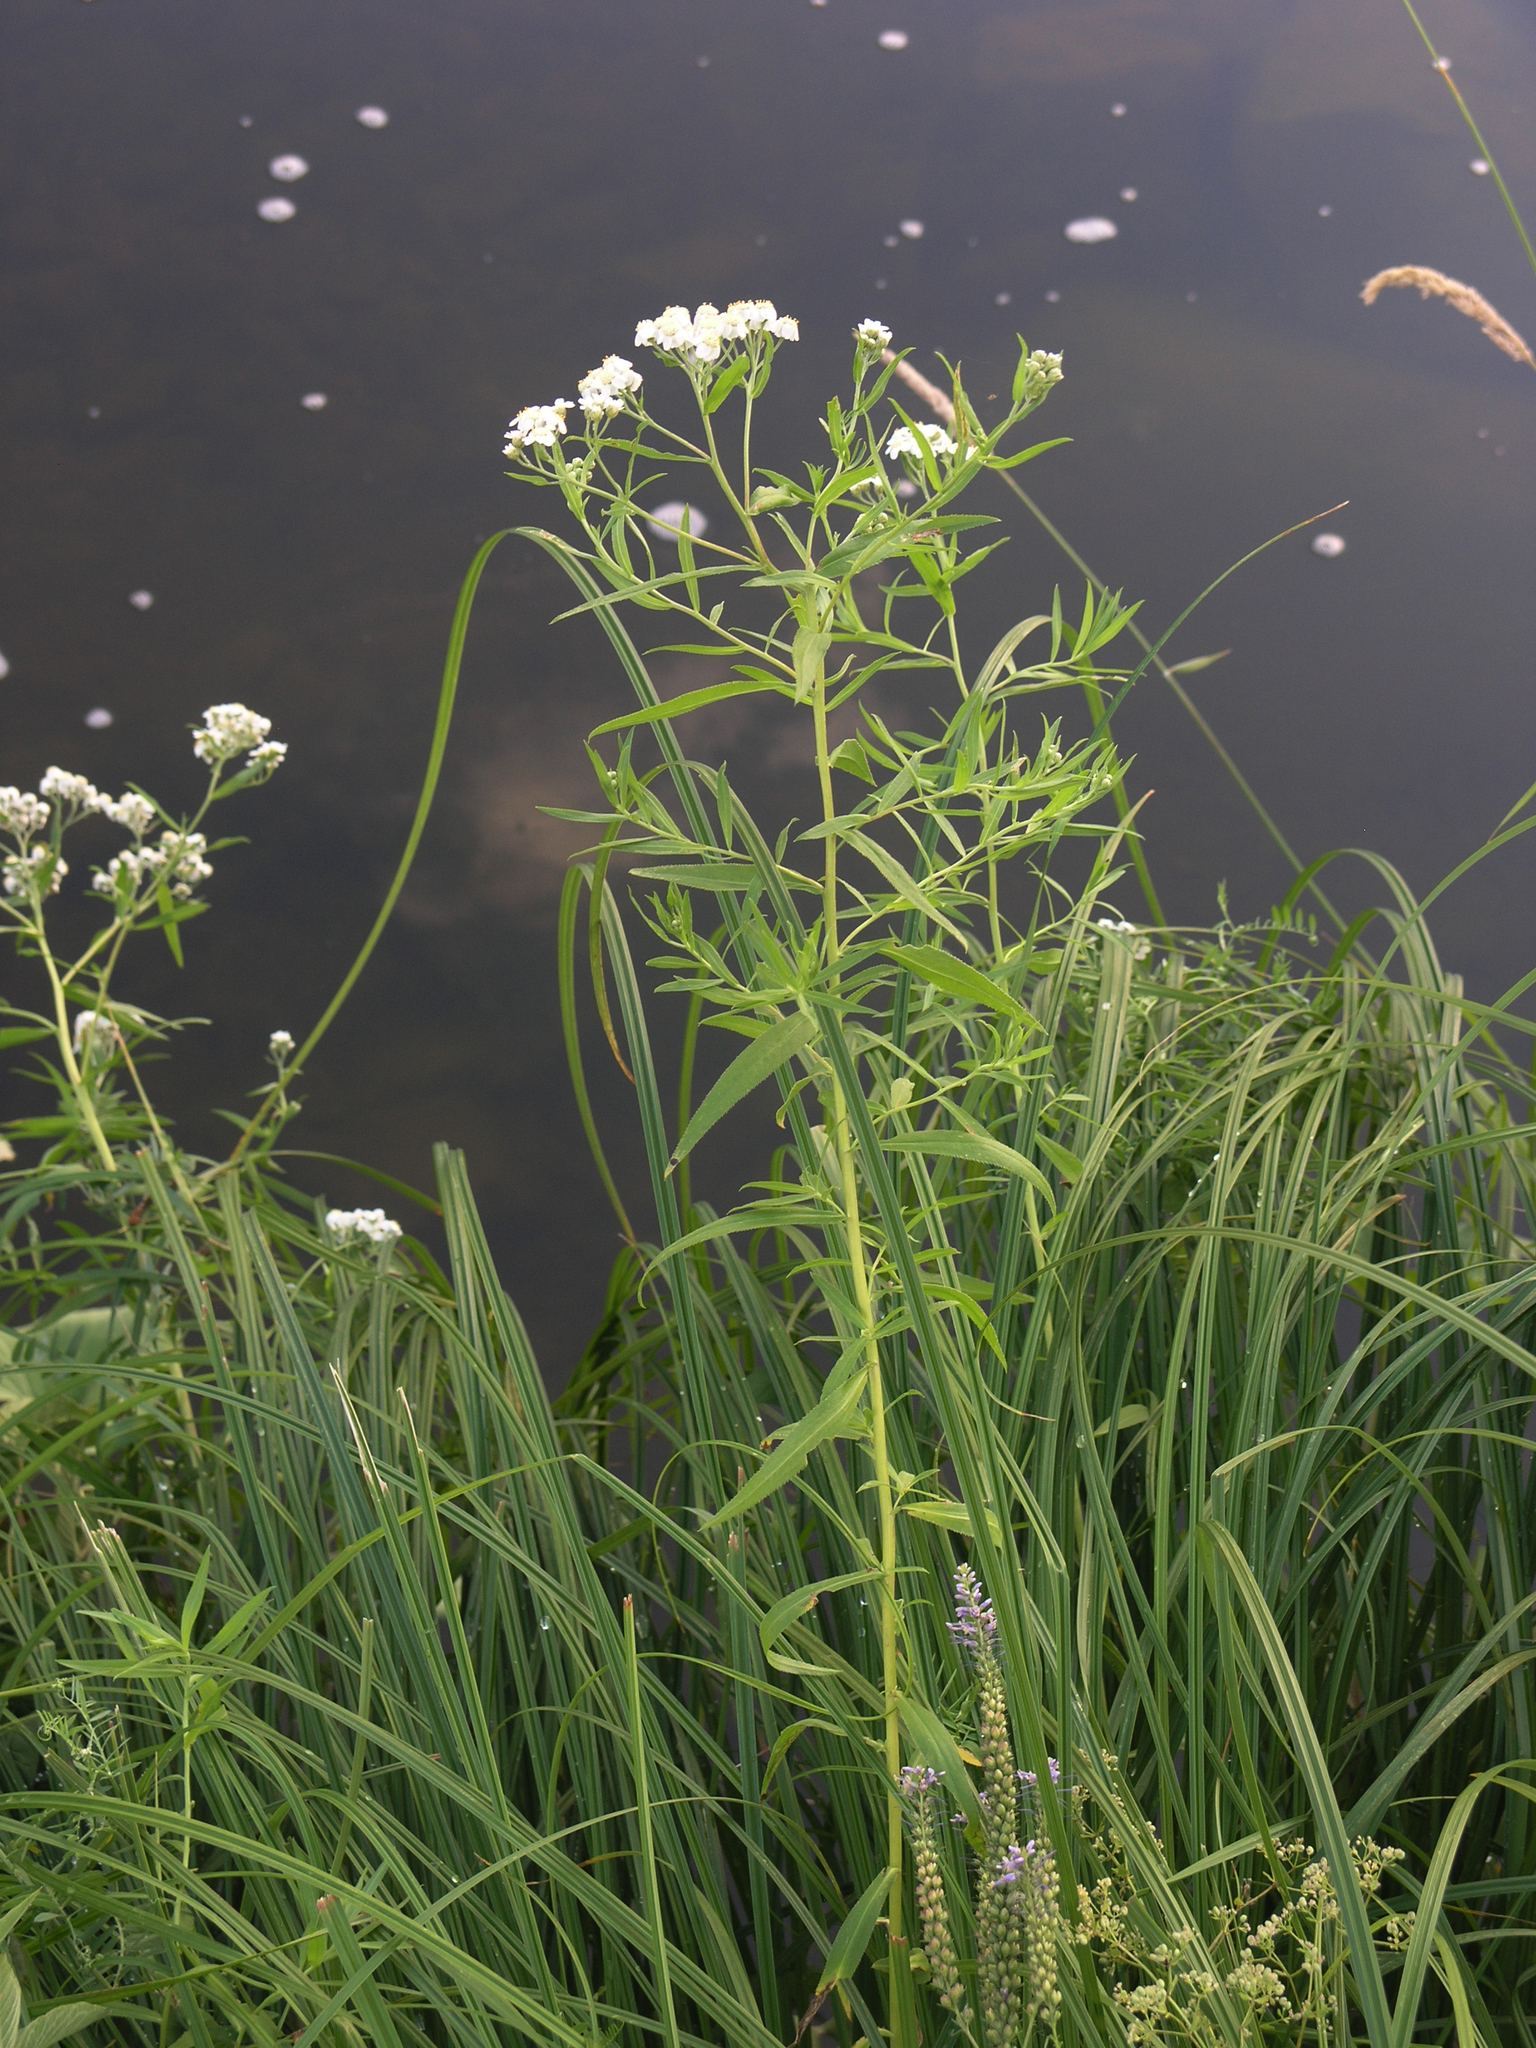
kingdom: Plantae
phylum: Tracheophyta
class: Magnoliopsida
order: Asterales
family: Asteraceae
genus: Achillea
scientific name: Achillea salicifolia
